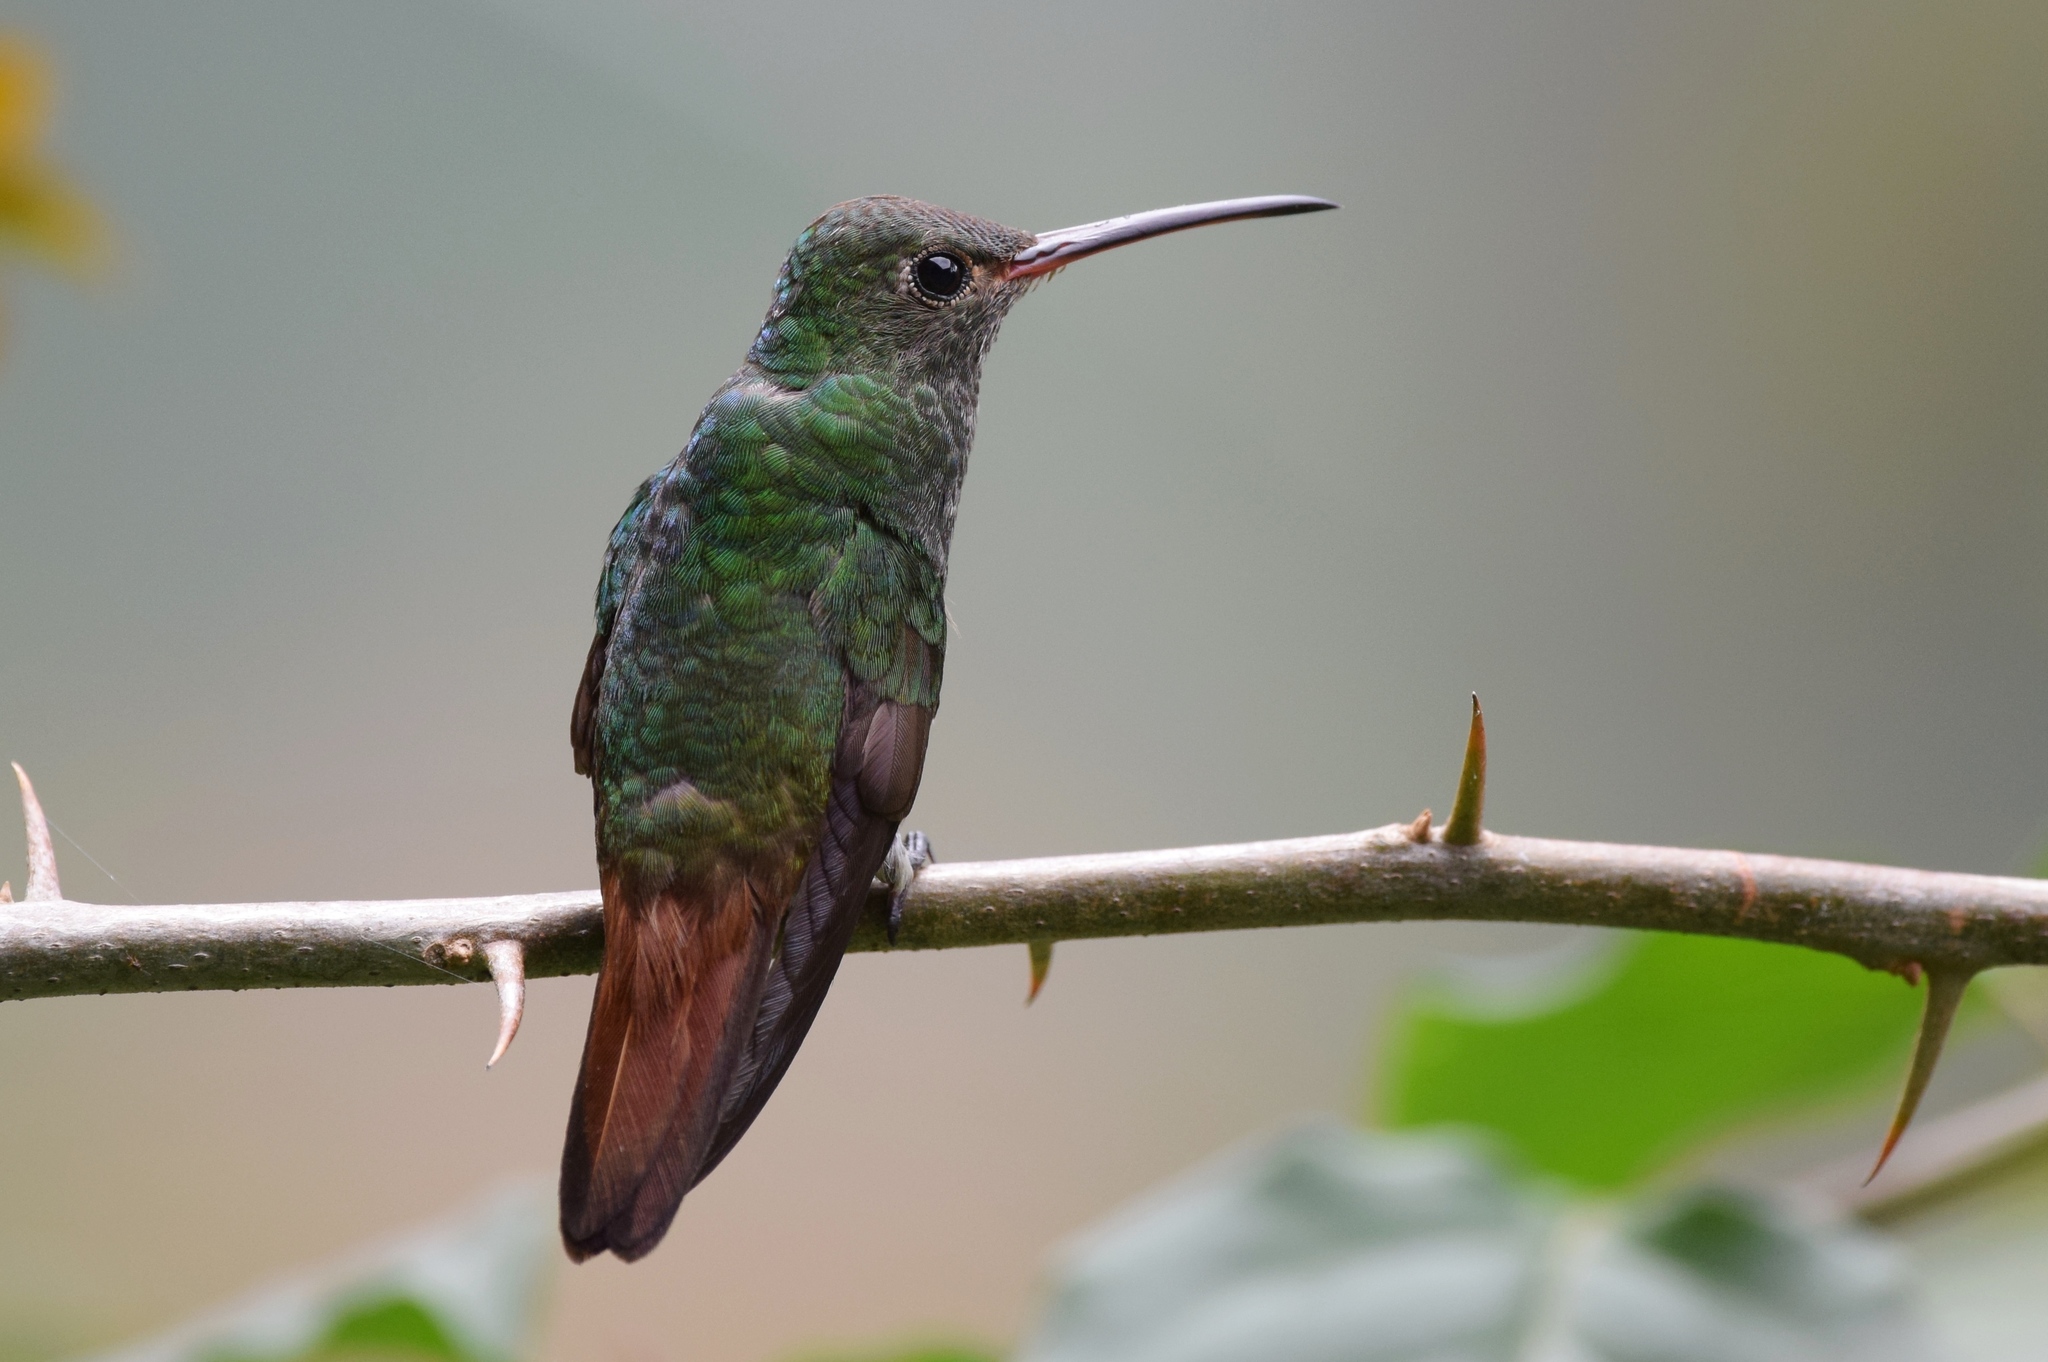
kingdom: Animalia
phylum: Chordata
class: Aves
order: Apodiformes
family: Trochilidae
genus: Amazilia
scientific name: Amazilia tzacatl
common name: Rufous-tailed hummingbird
